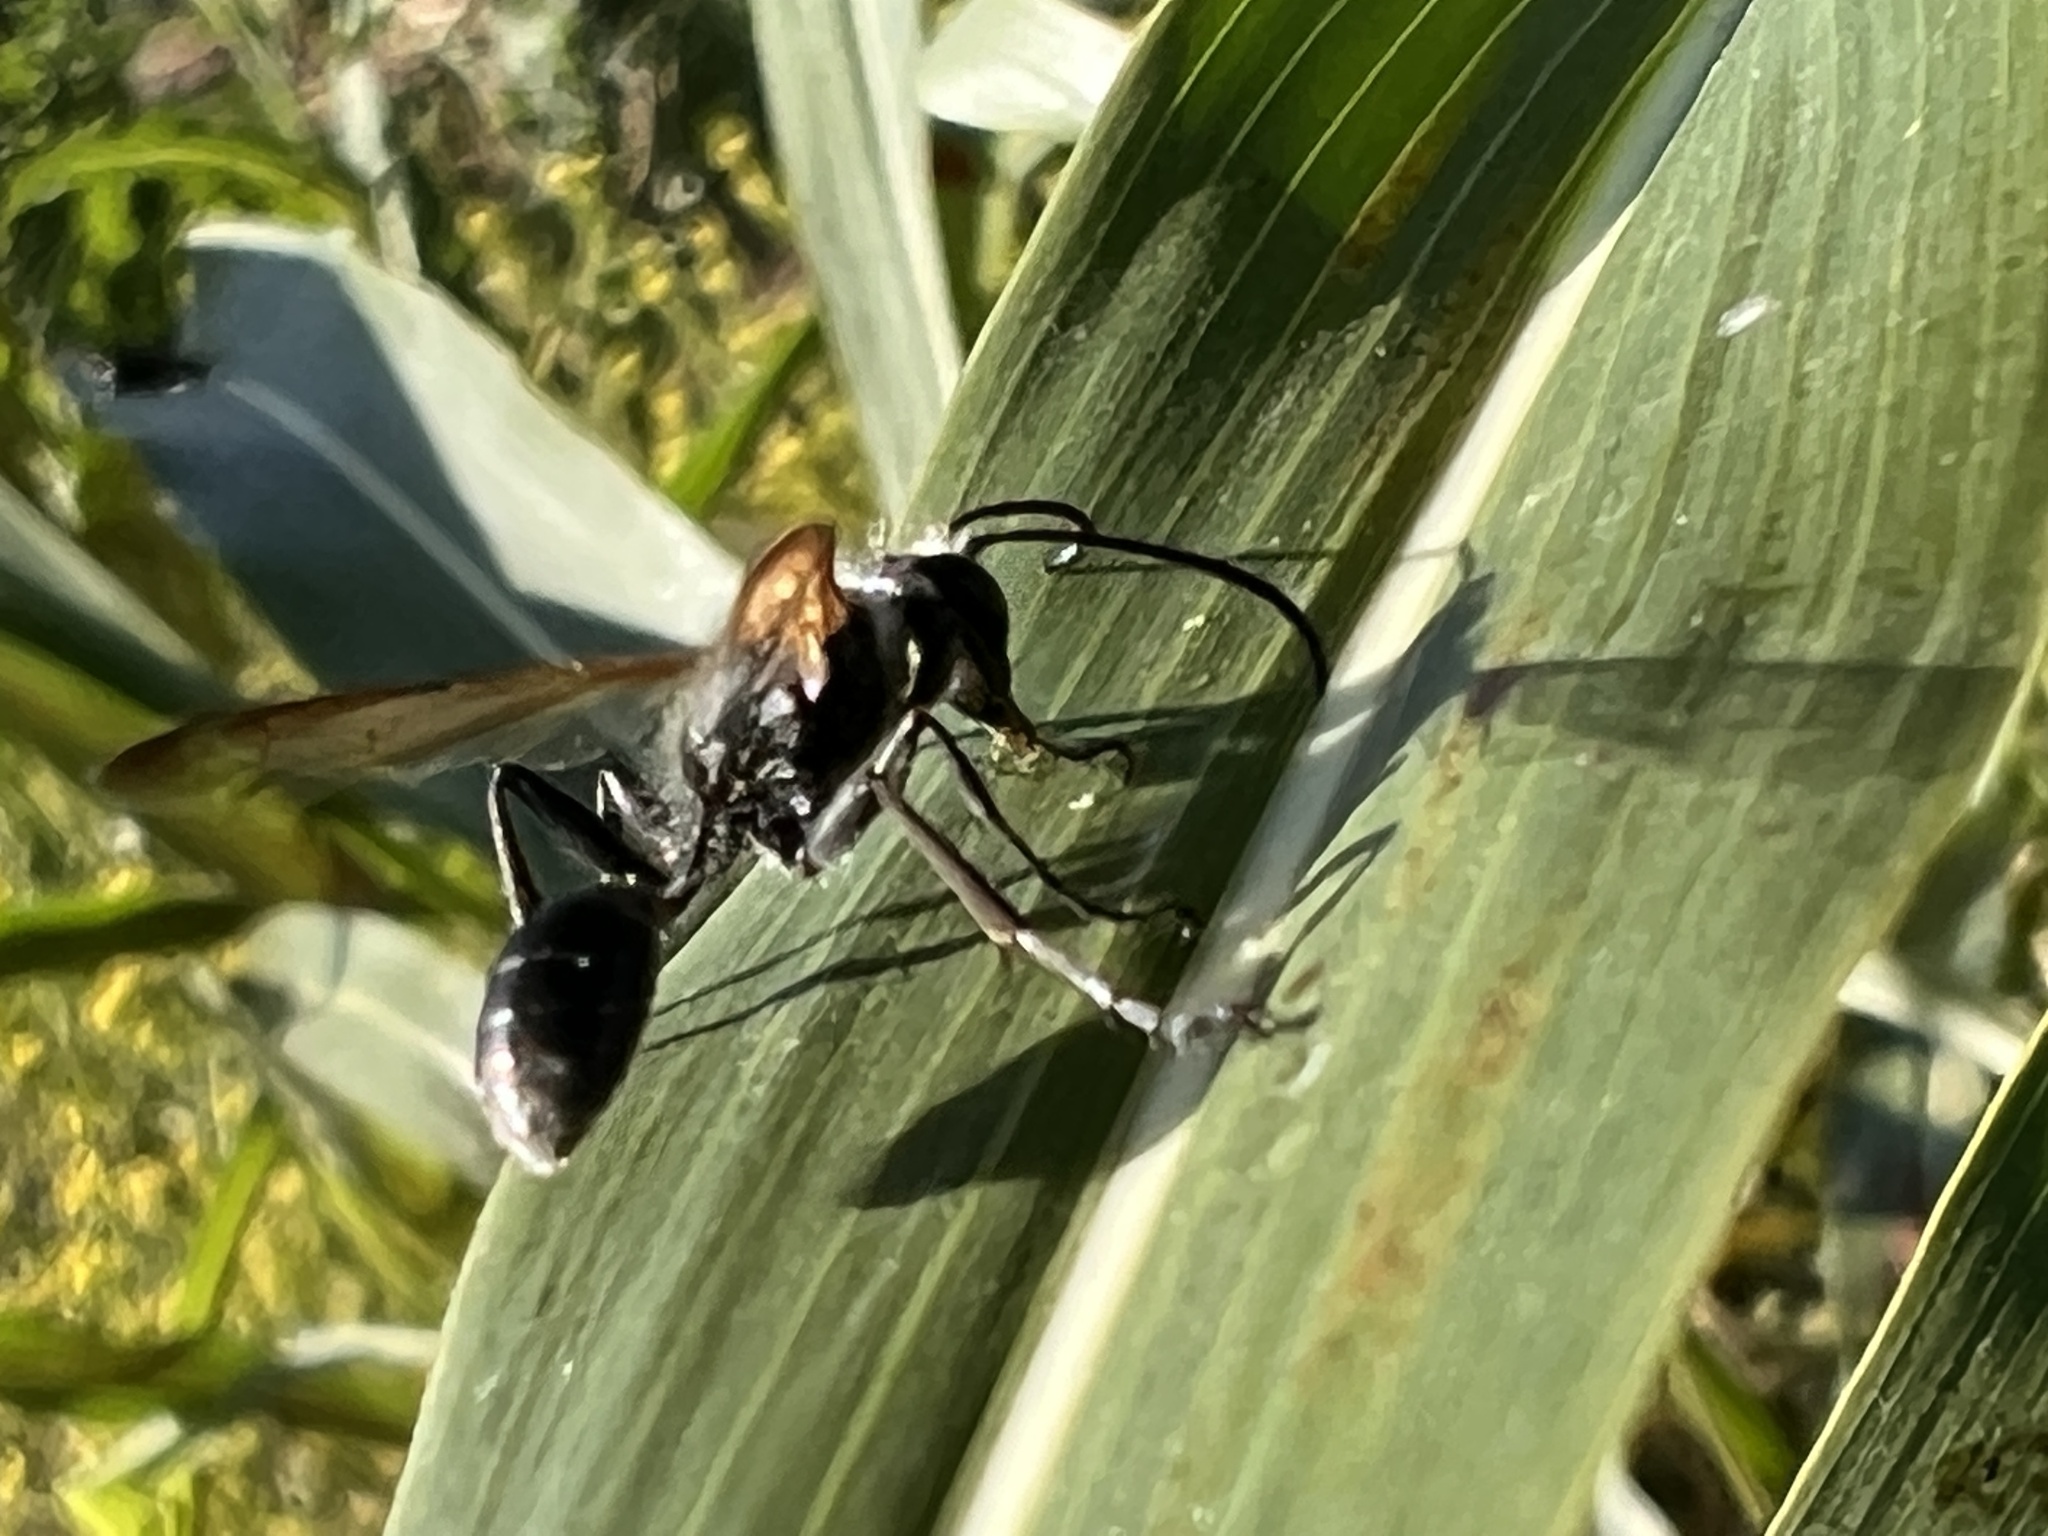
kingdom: Animalia
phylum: Arthropoda
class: Insecta
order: Hymenoptera
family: Sphecidae
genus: Isodontia
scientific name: Isodontia mexicana
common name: Mud dauber
